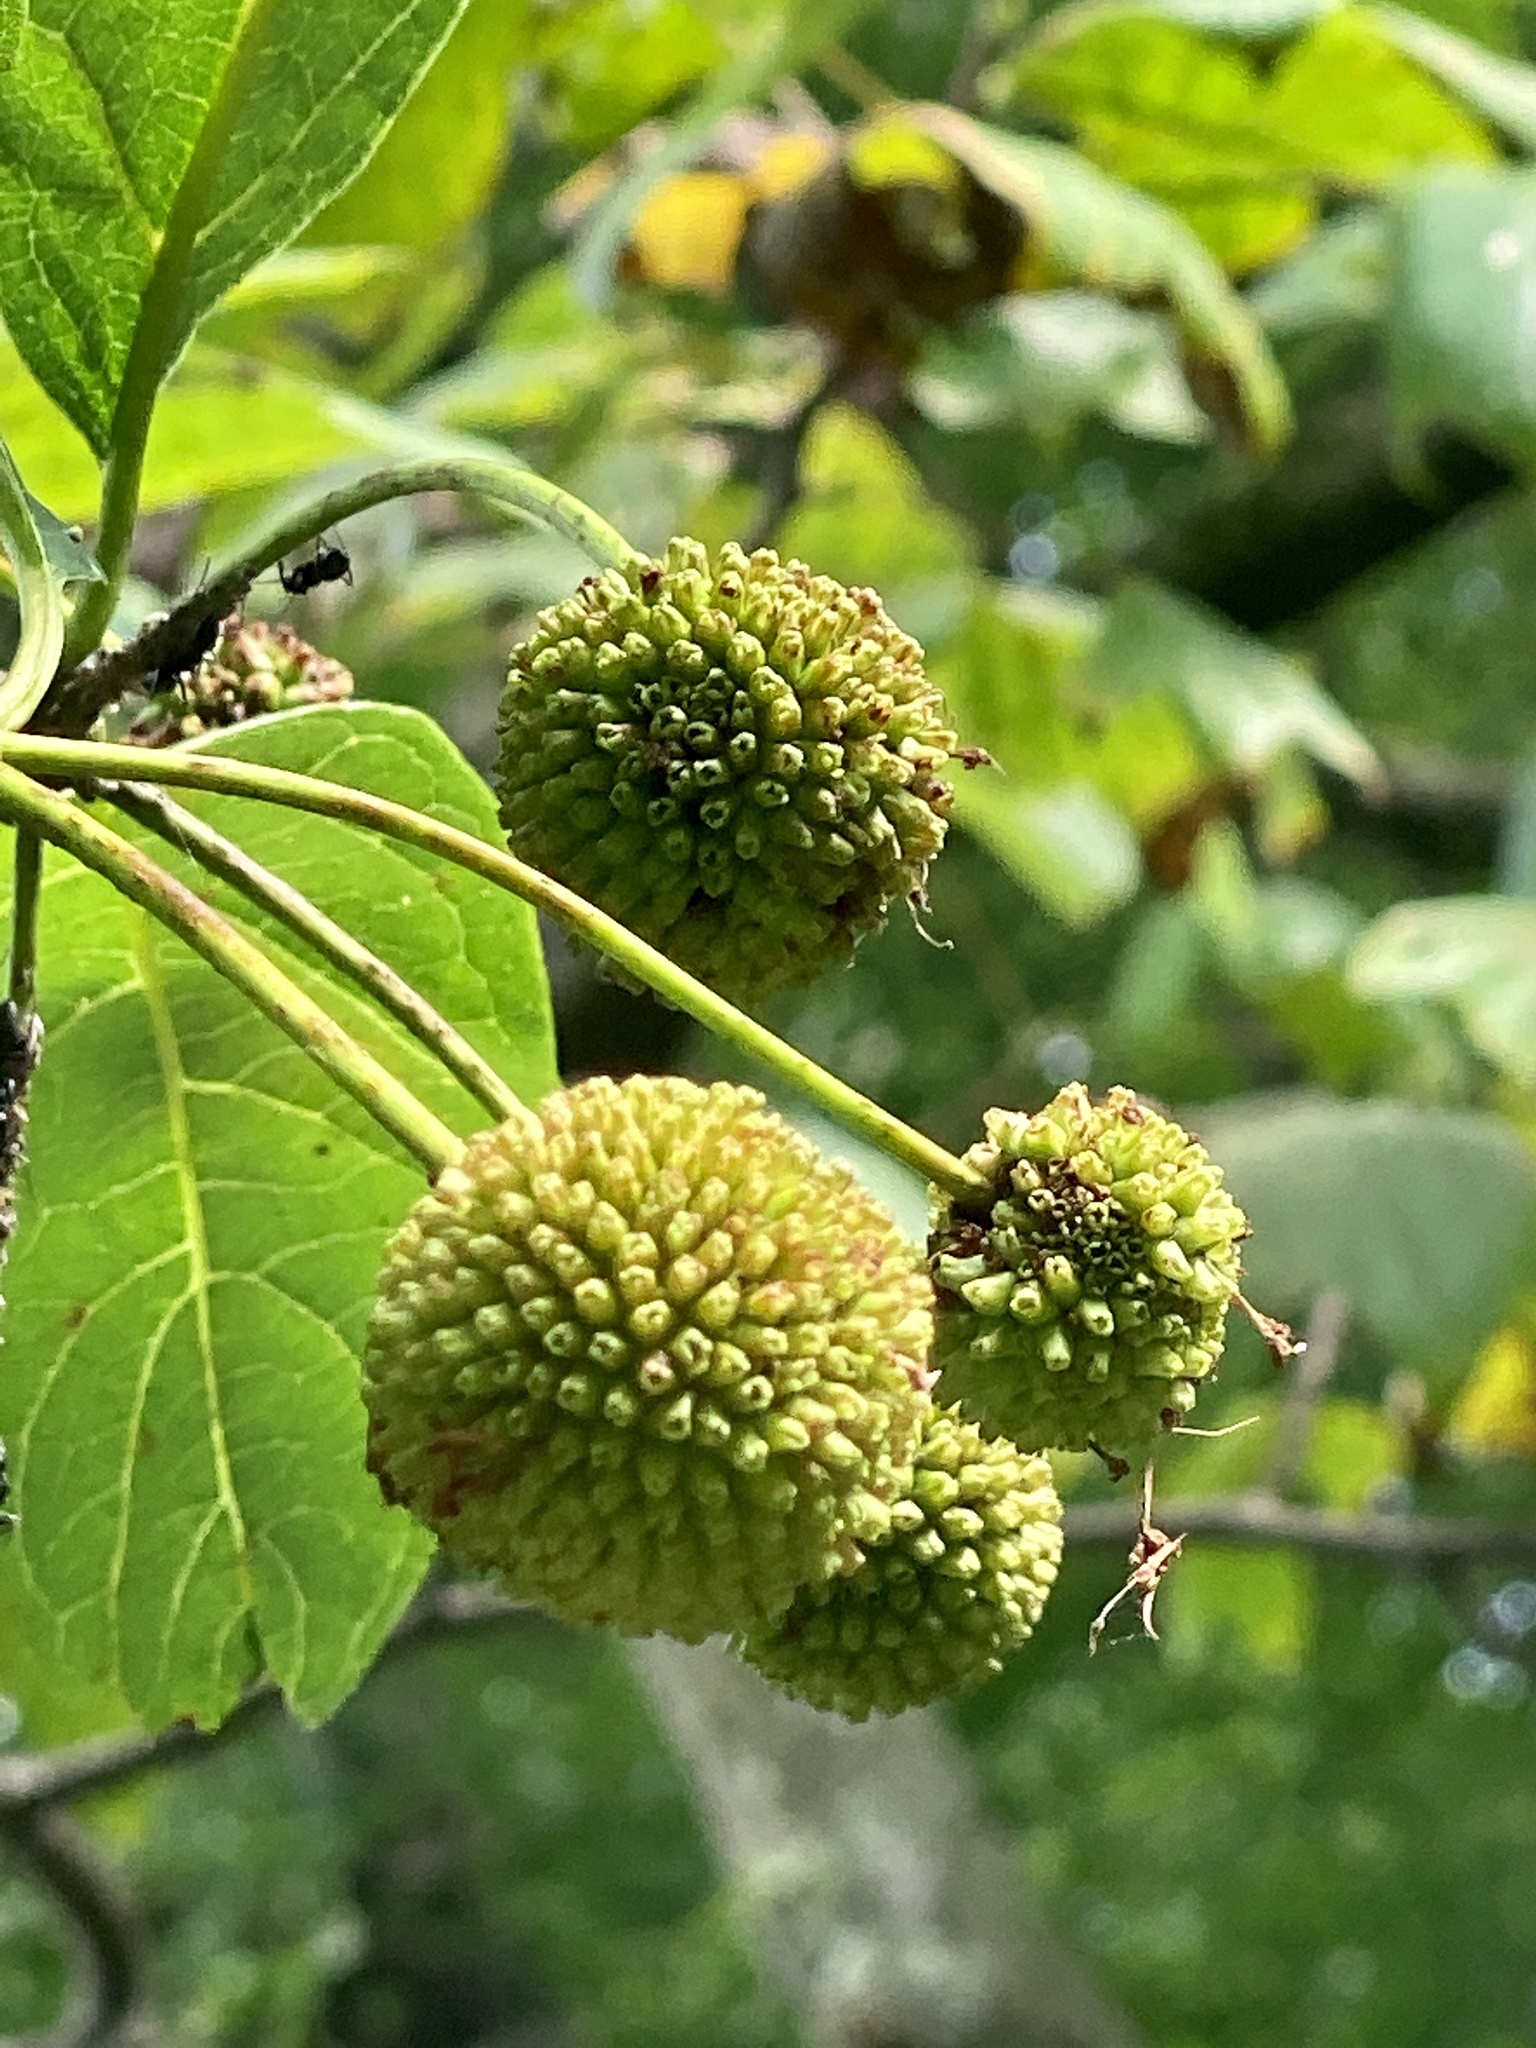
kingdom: Plantae
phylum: Tracheophyta
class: Magnoliopsida
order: Gentianales
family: Rubiaceae
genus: Cephalanthus
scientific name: Cephalanthus occidentalis
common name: Button-willow
